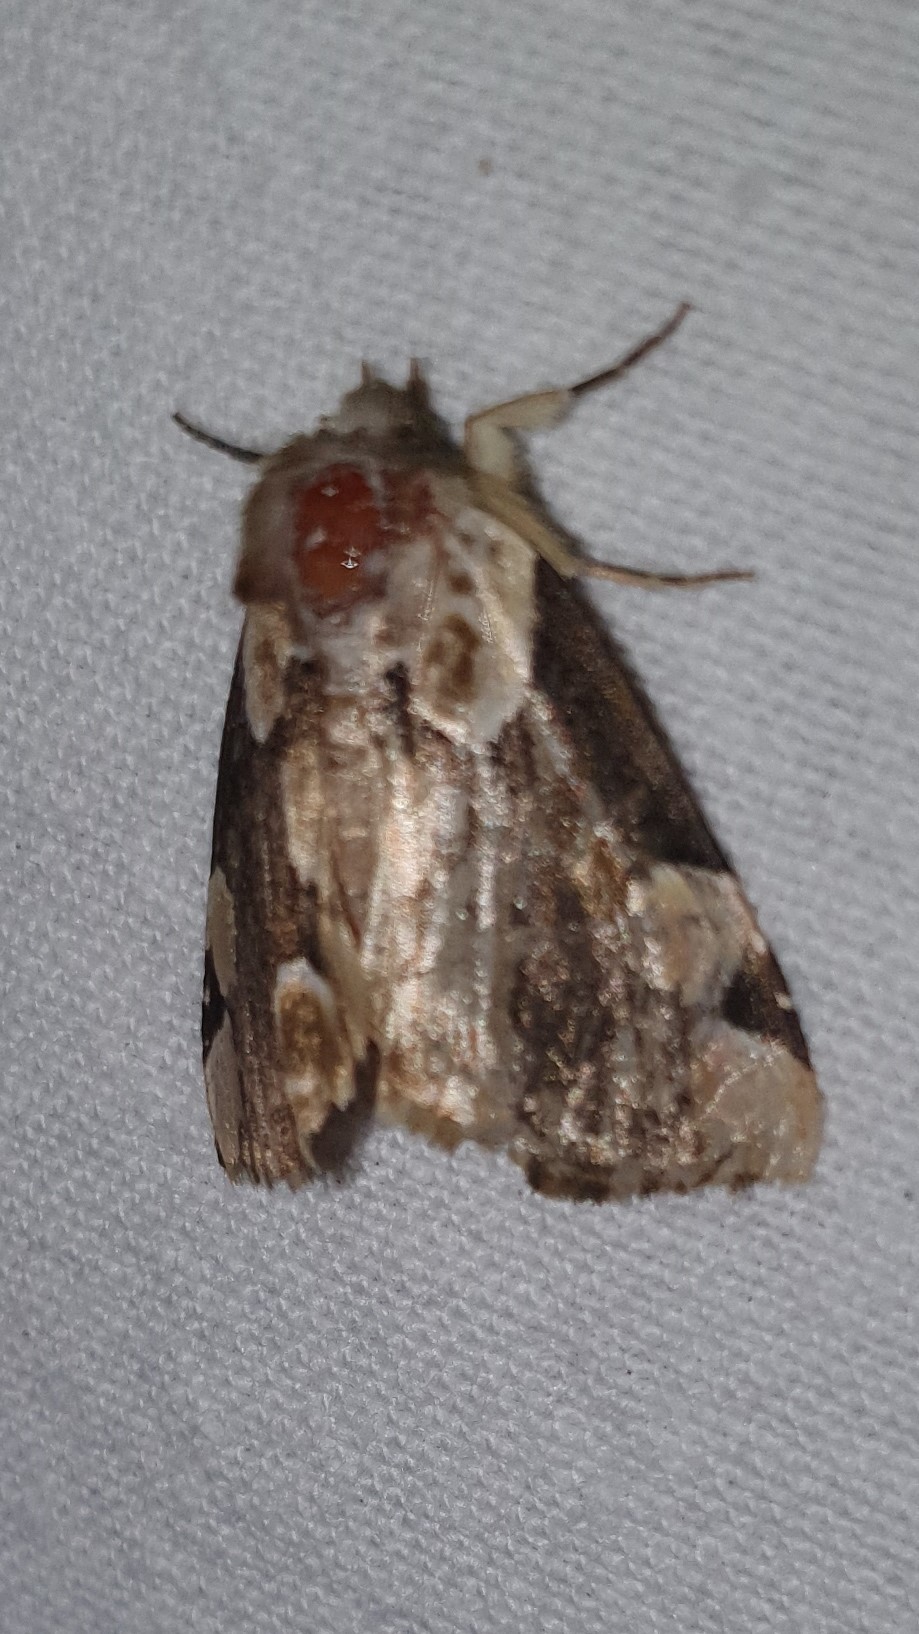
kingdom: Animalia
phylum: Arthropoda
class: Insecta
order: Lepidoptera
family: Drepanidae
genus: Thyatira
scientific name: Thyatira batis
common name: Peach blossom
